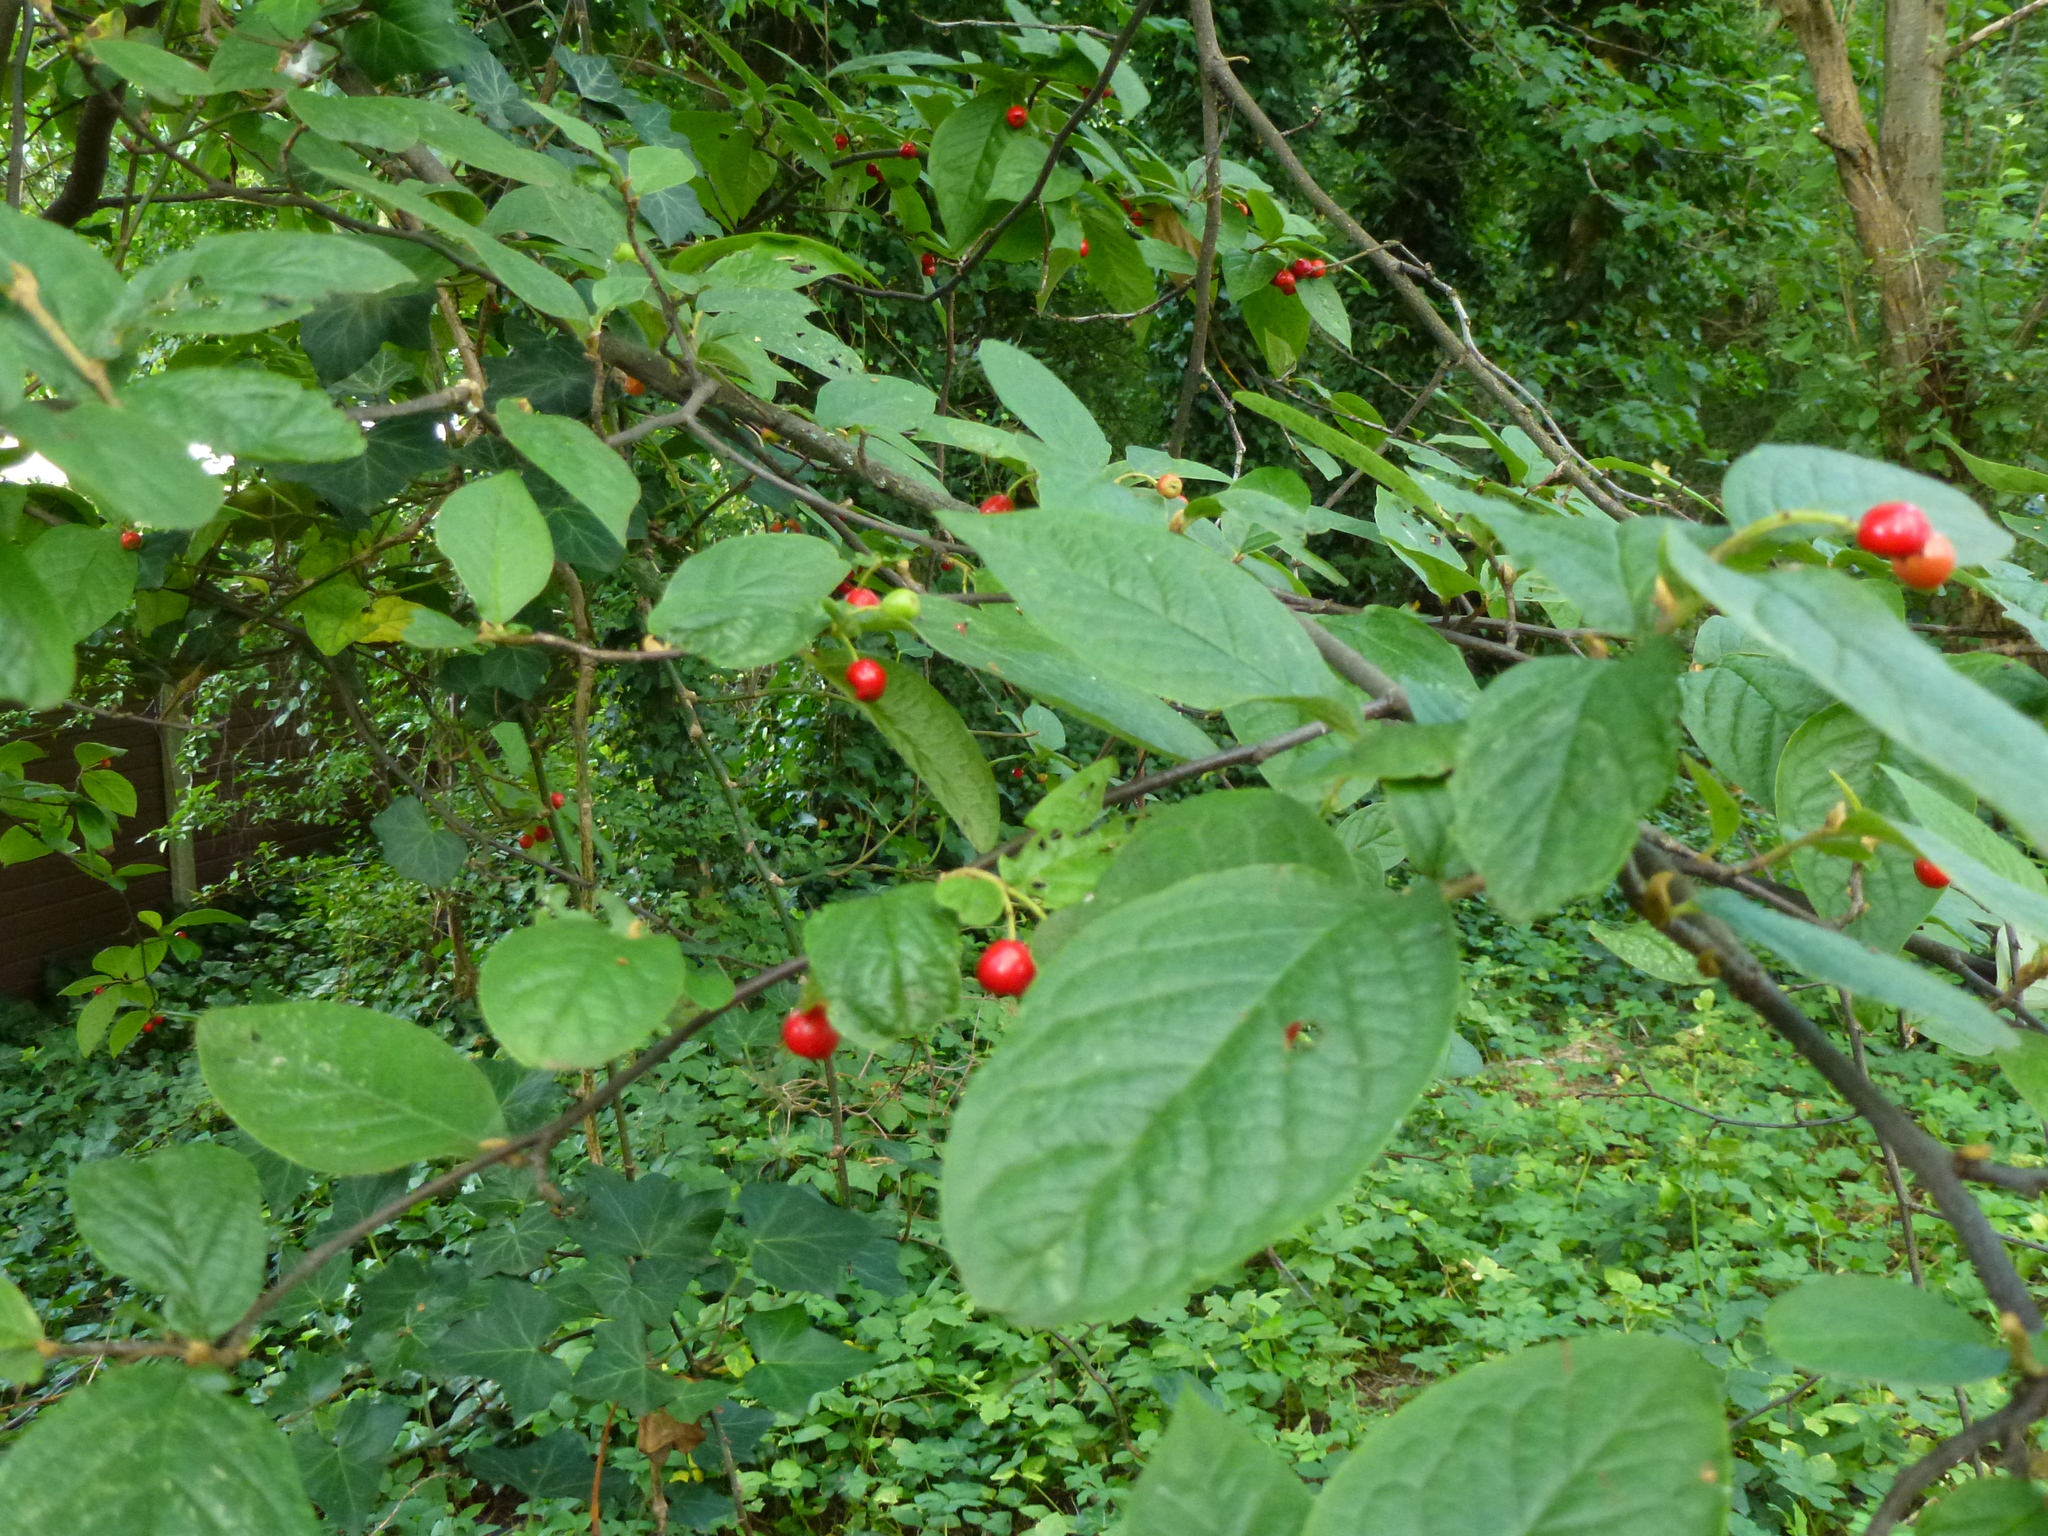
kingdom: Plantae
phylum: Tracheophyta
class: Magnoliopsida
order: Rosales
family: Rosaceae
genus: Cotoneaster
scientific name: Cotoneaster bullatus
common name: Hollyberry cotoneaster
